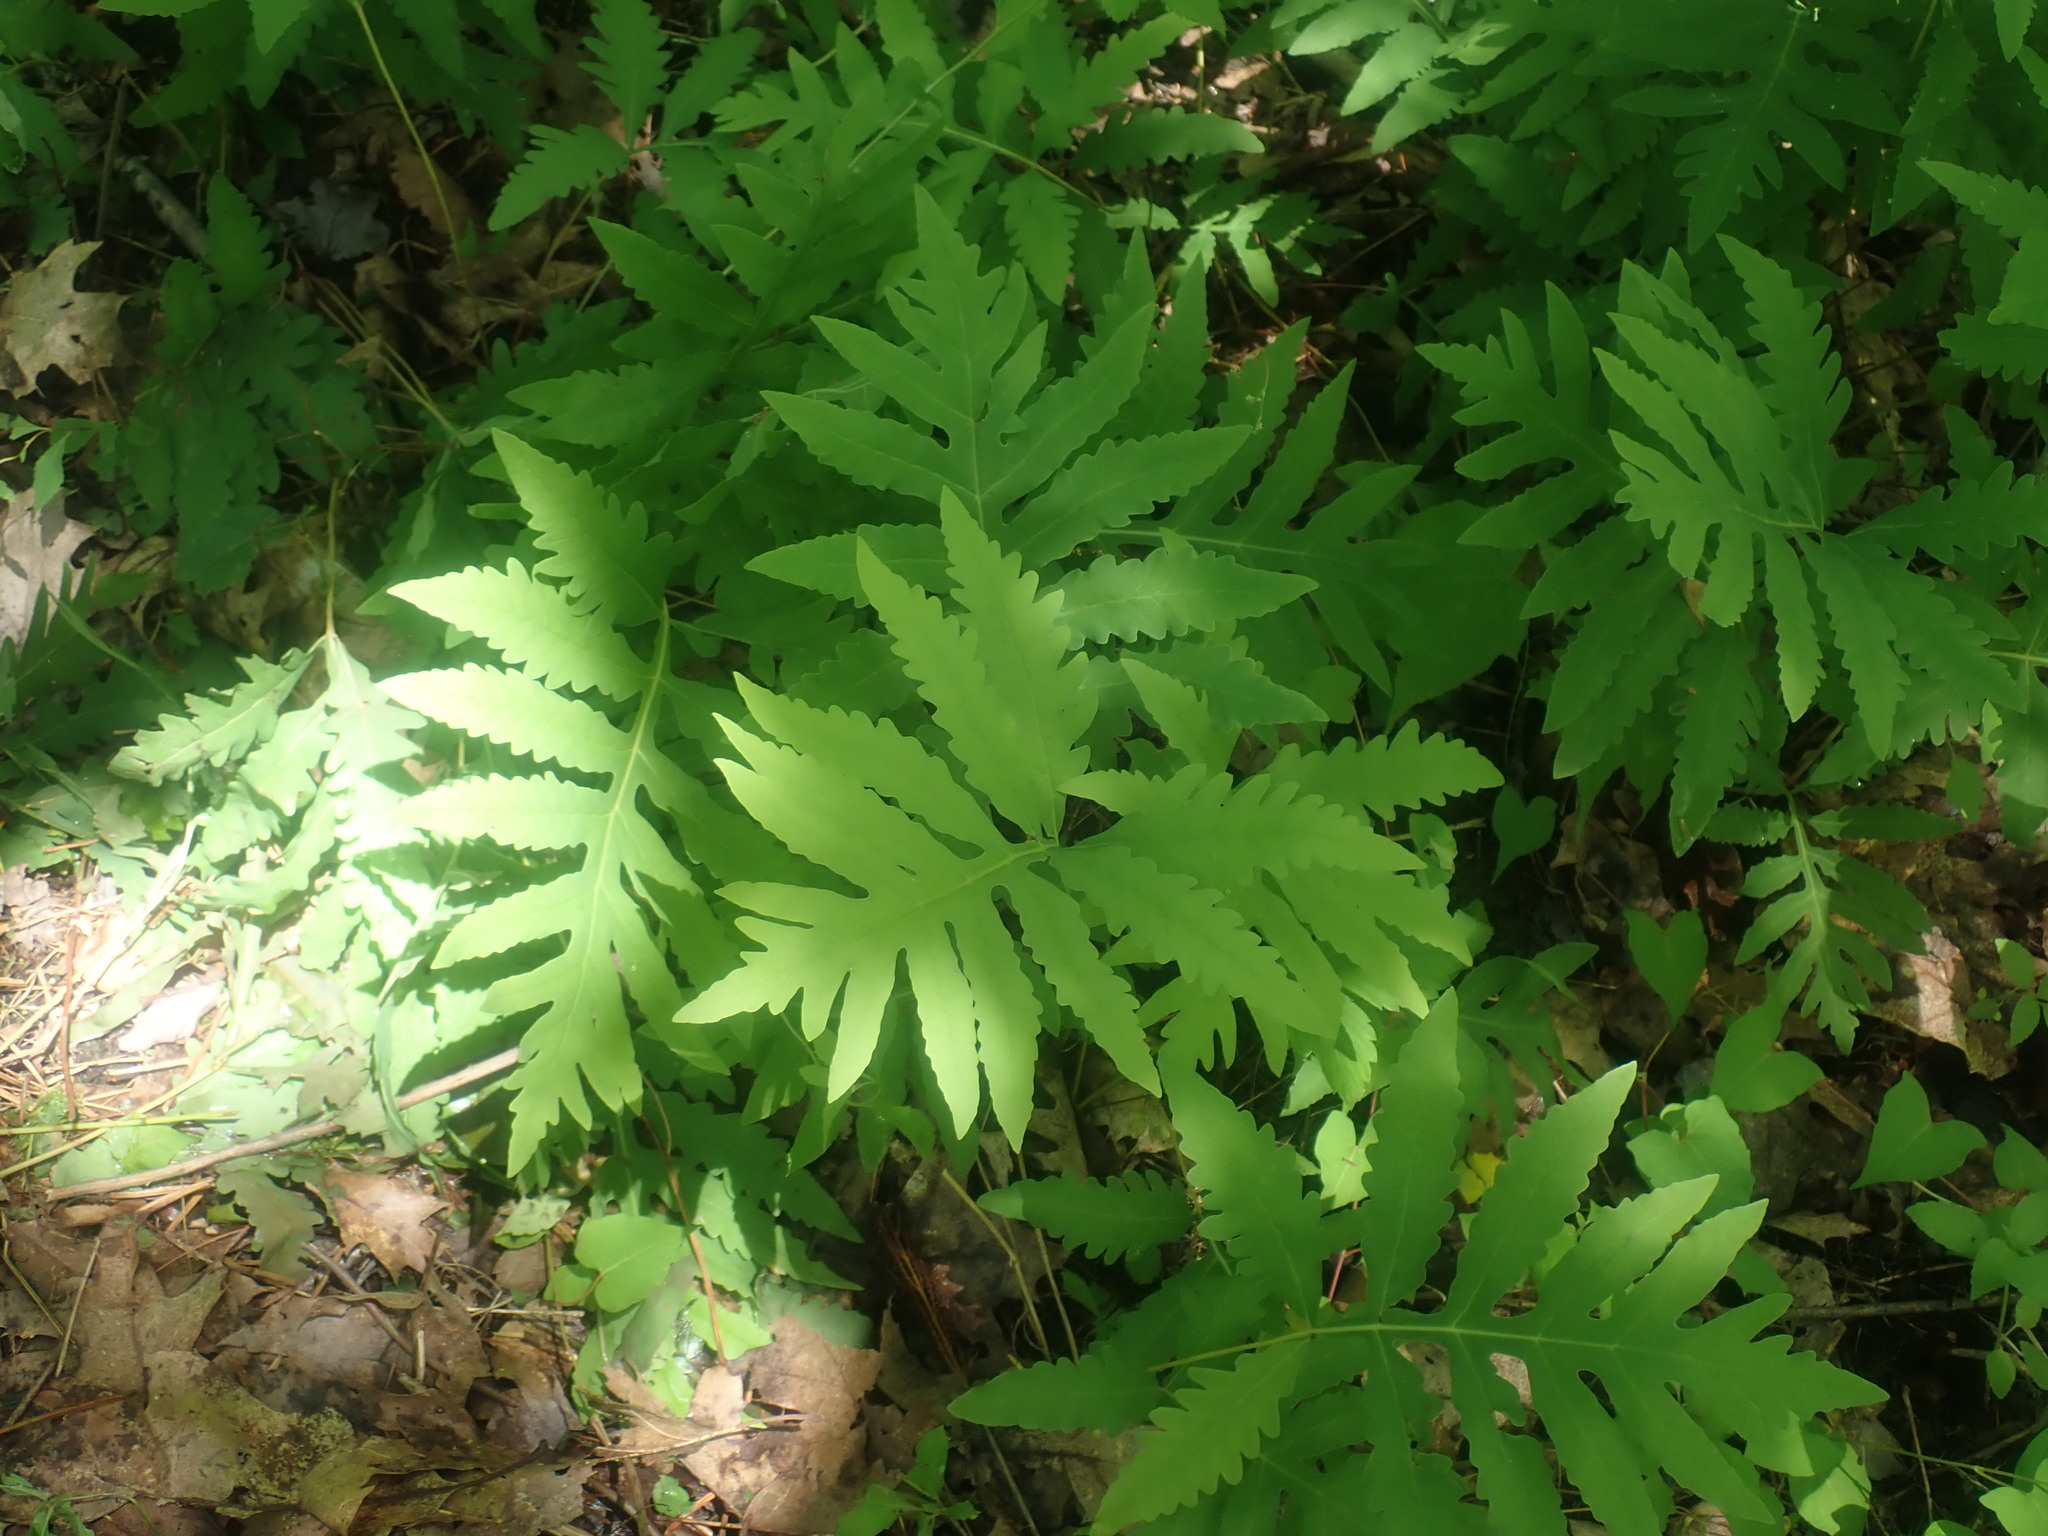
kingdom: Plantae
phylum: Tracheophyta
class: Polypodiopsida
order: Polypodiales
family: Onocleaceae
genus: Onoclea
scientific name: Onoclea sensibilis
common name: Sensitive fern
